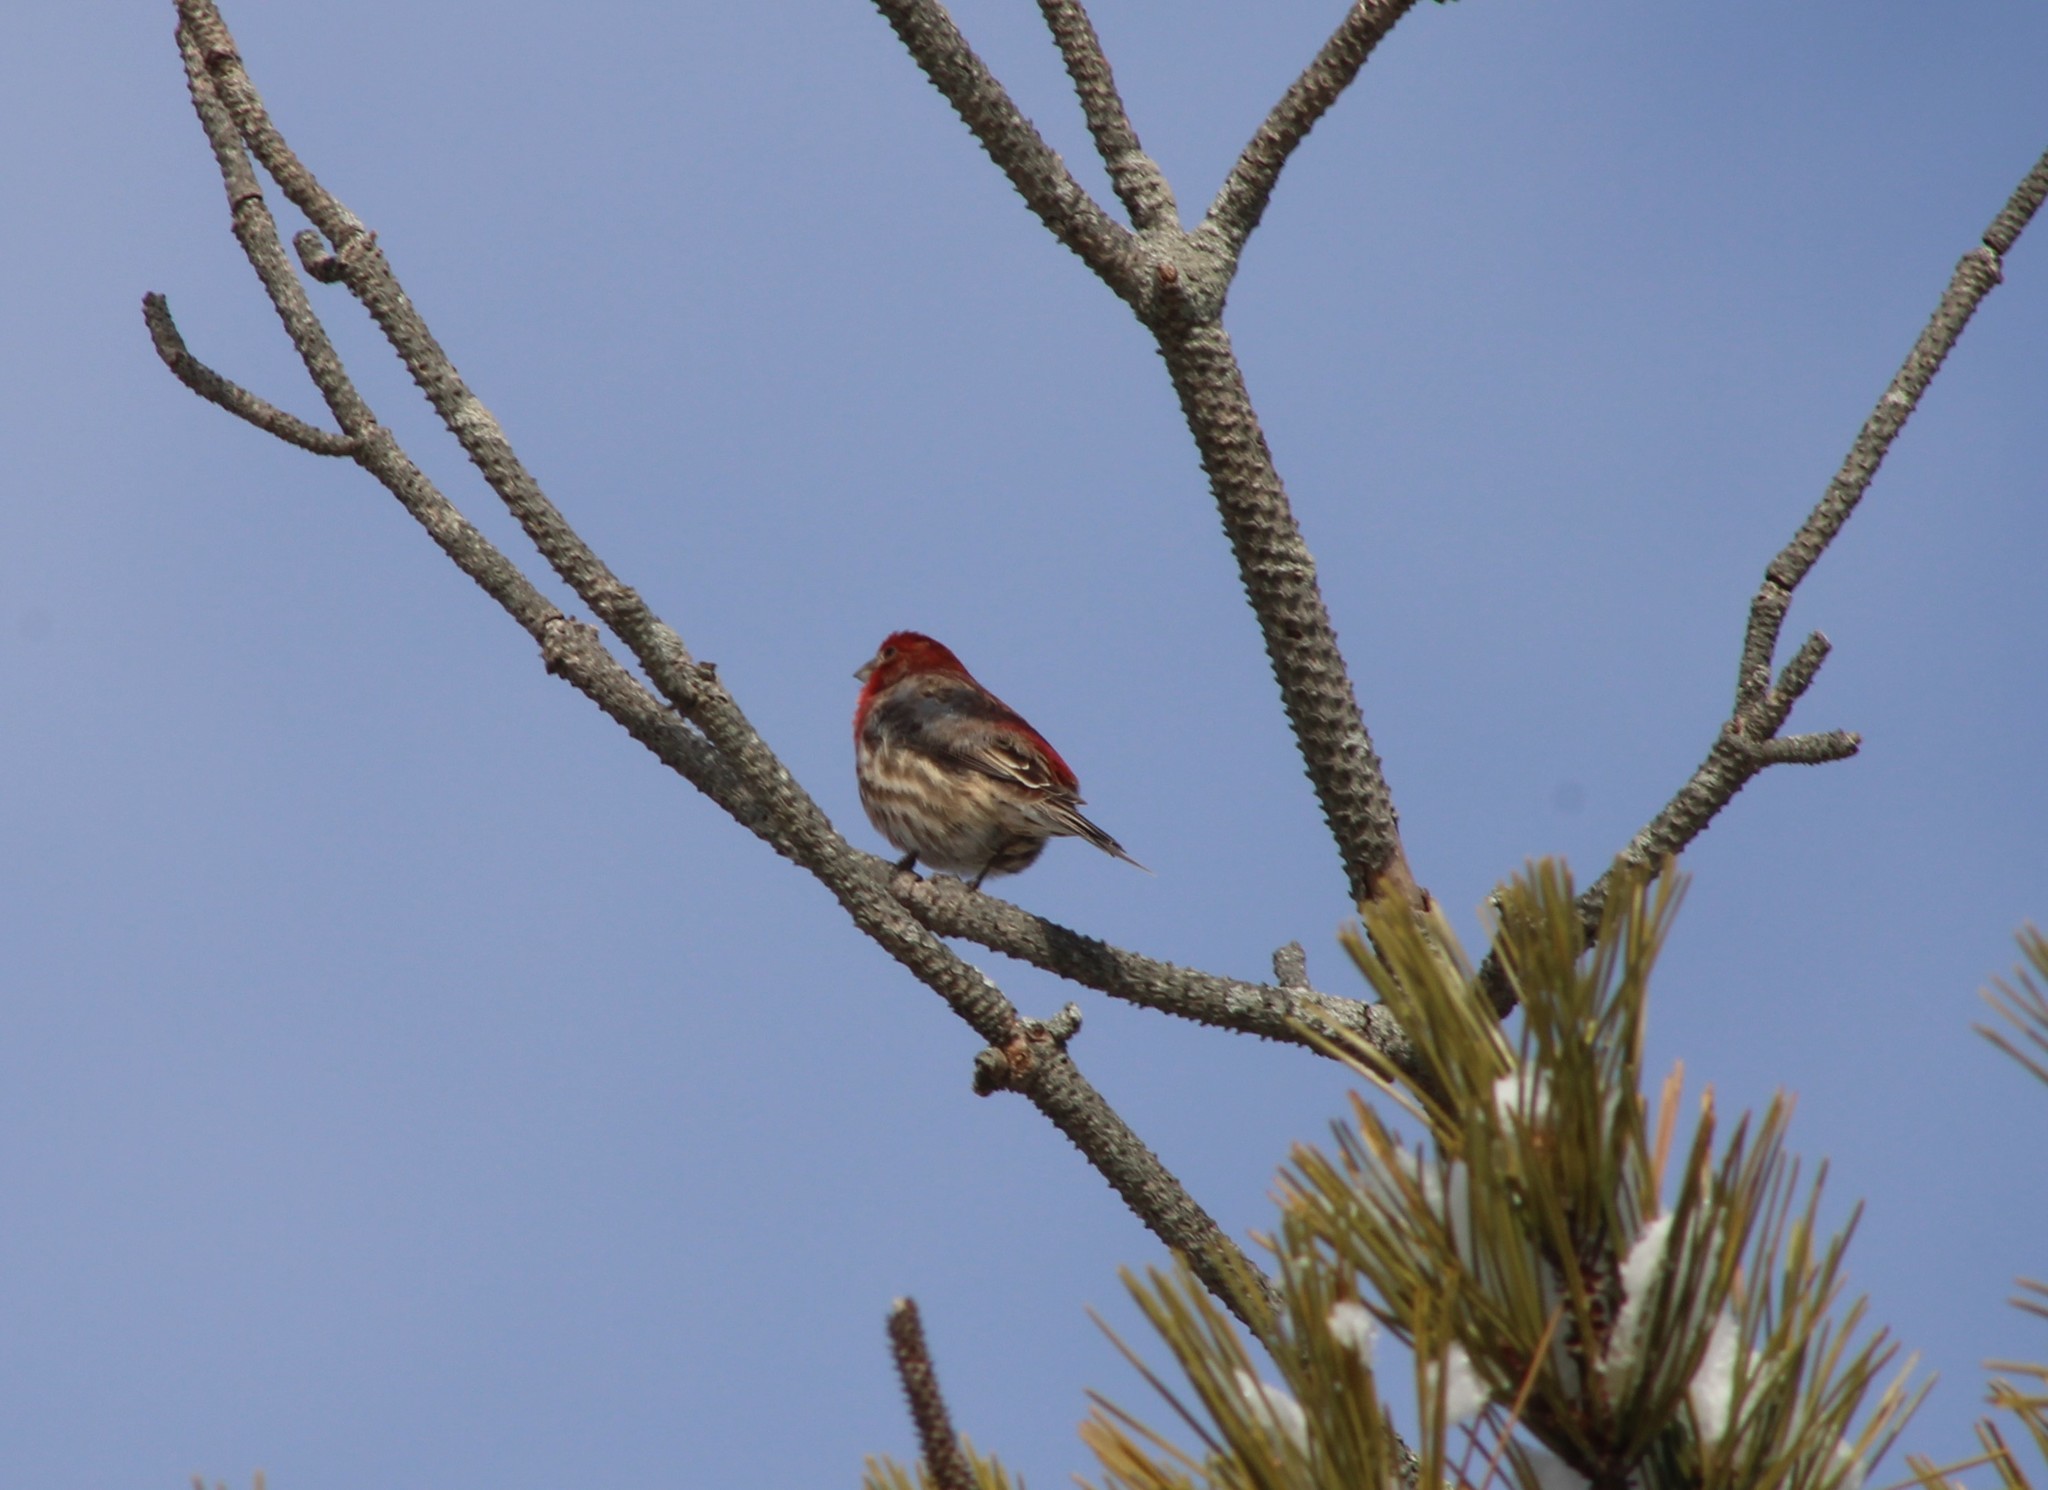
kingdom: Animalia
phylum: Chordata
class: Aves
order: Passeriformes
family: Fringillidae
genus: Haemorhous
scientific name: Haemorhous mexicanus
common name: House finch
